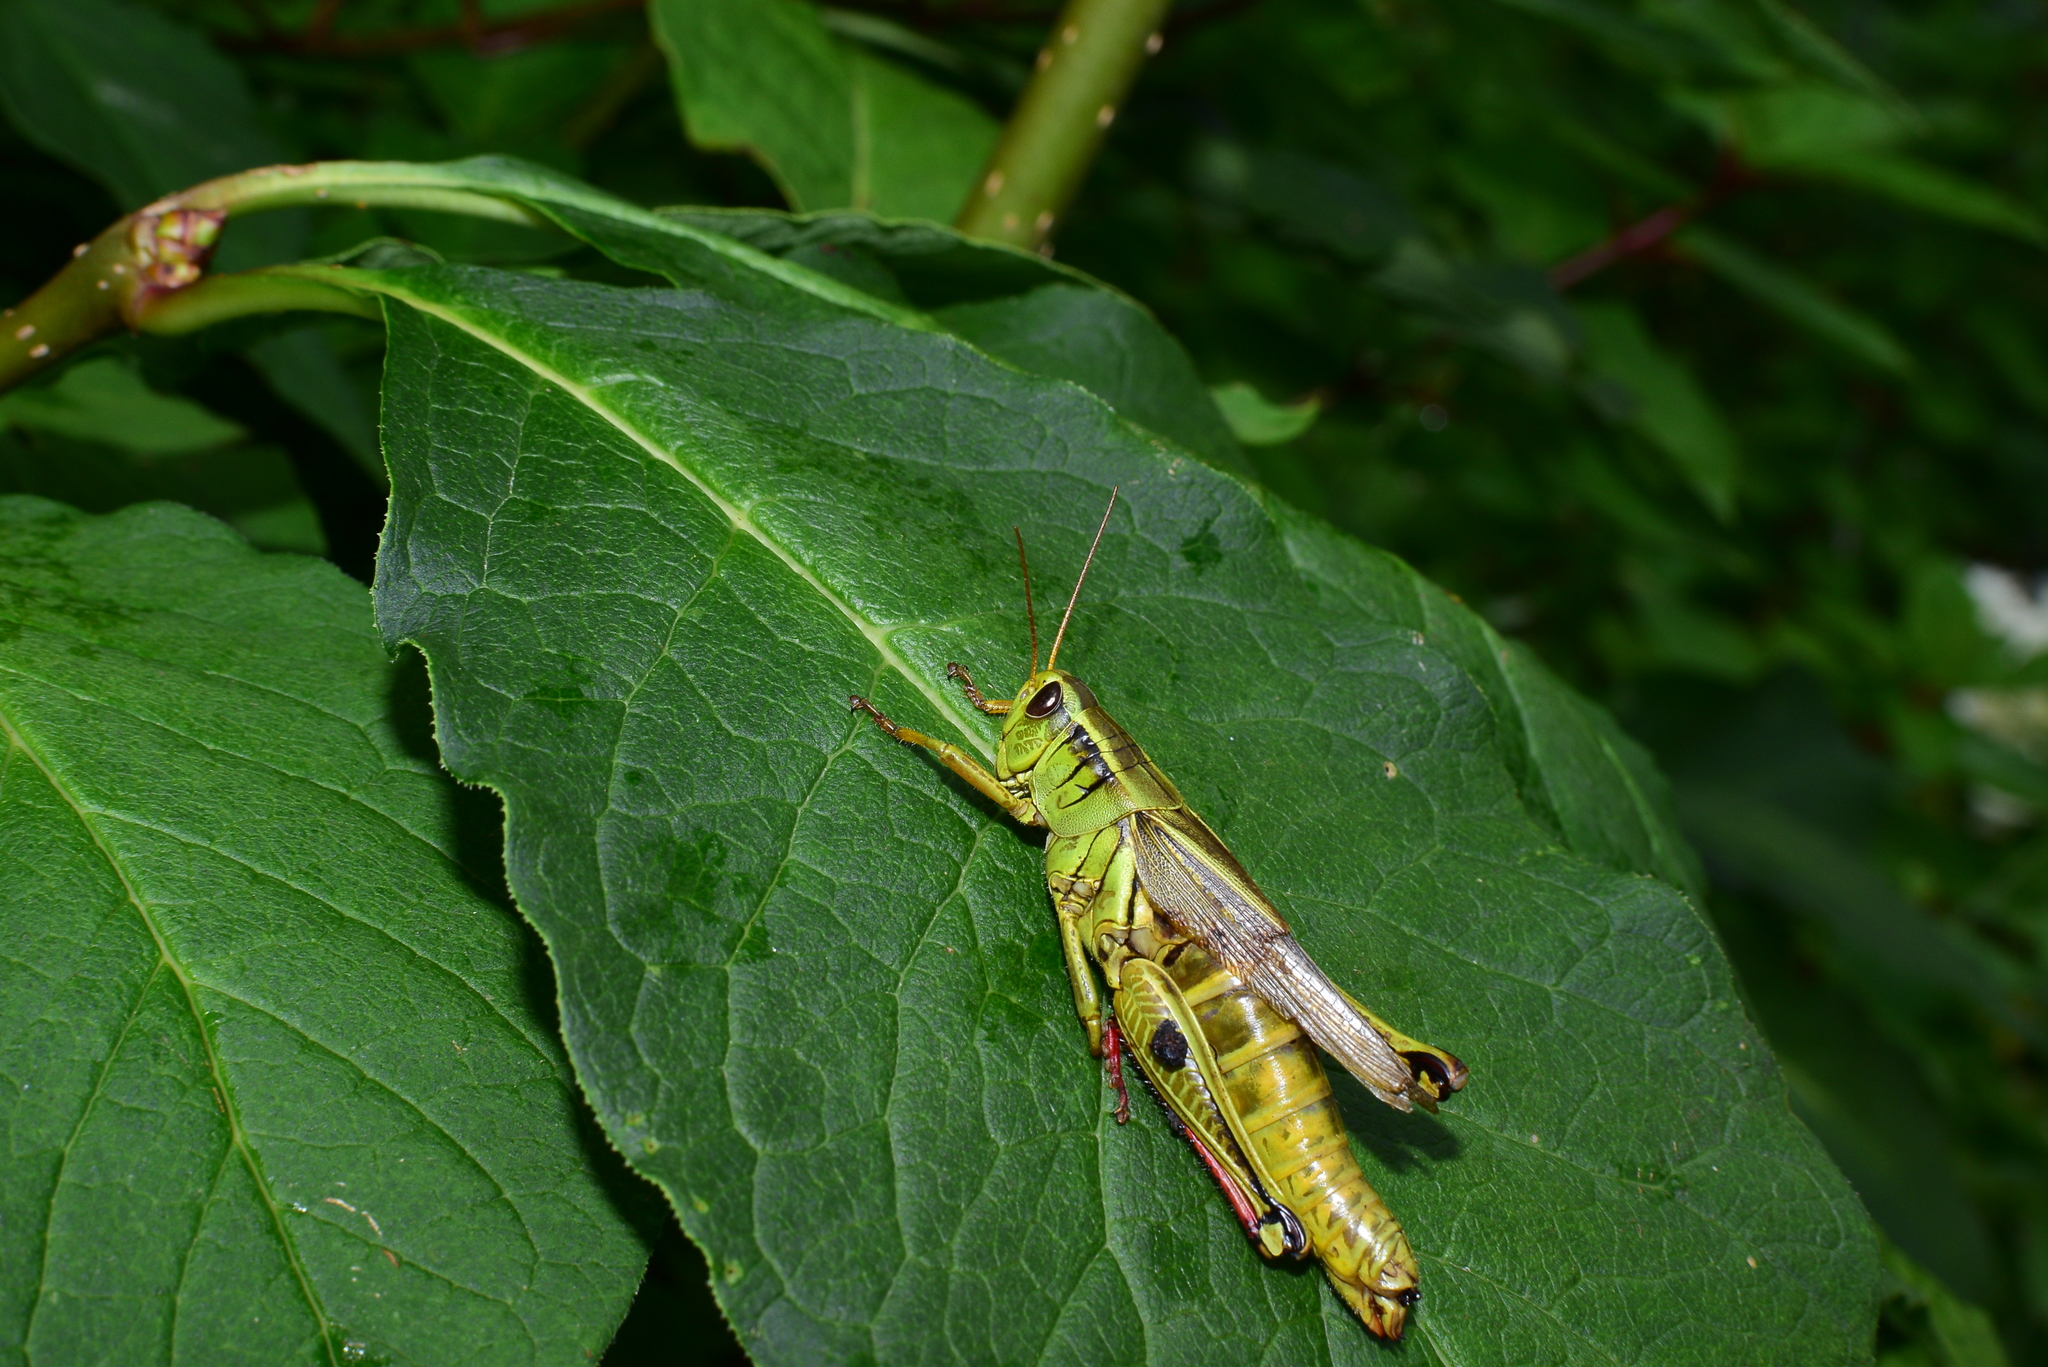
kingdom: Animalia
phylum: Arthropoda
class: Insecta
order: Orthoptera
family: Acrididae
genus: Melanoplus
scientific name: Melanoplus bivittatus
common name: Two-striped grasshopper
